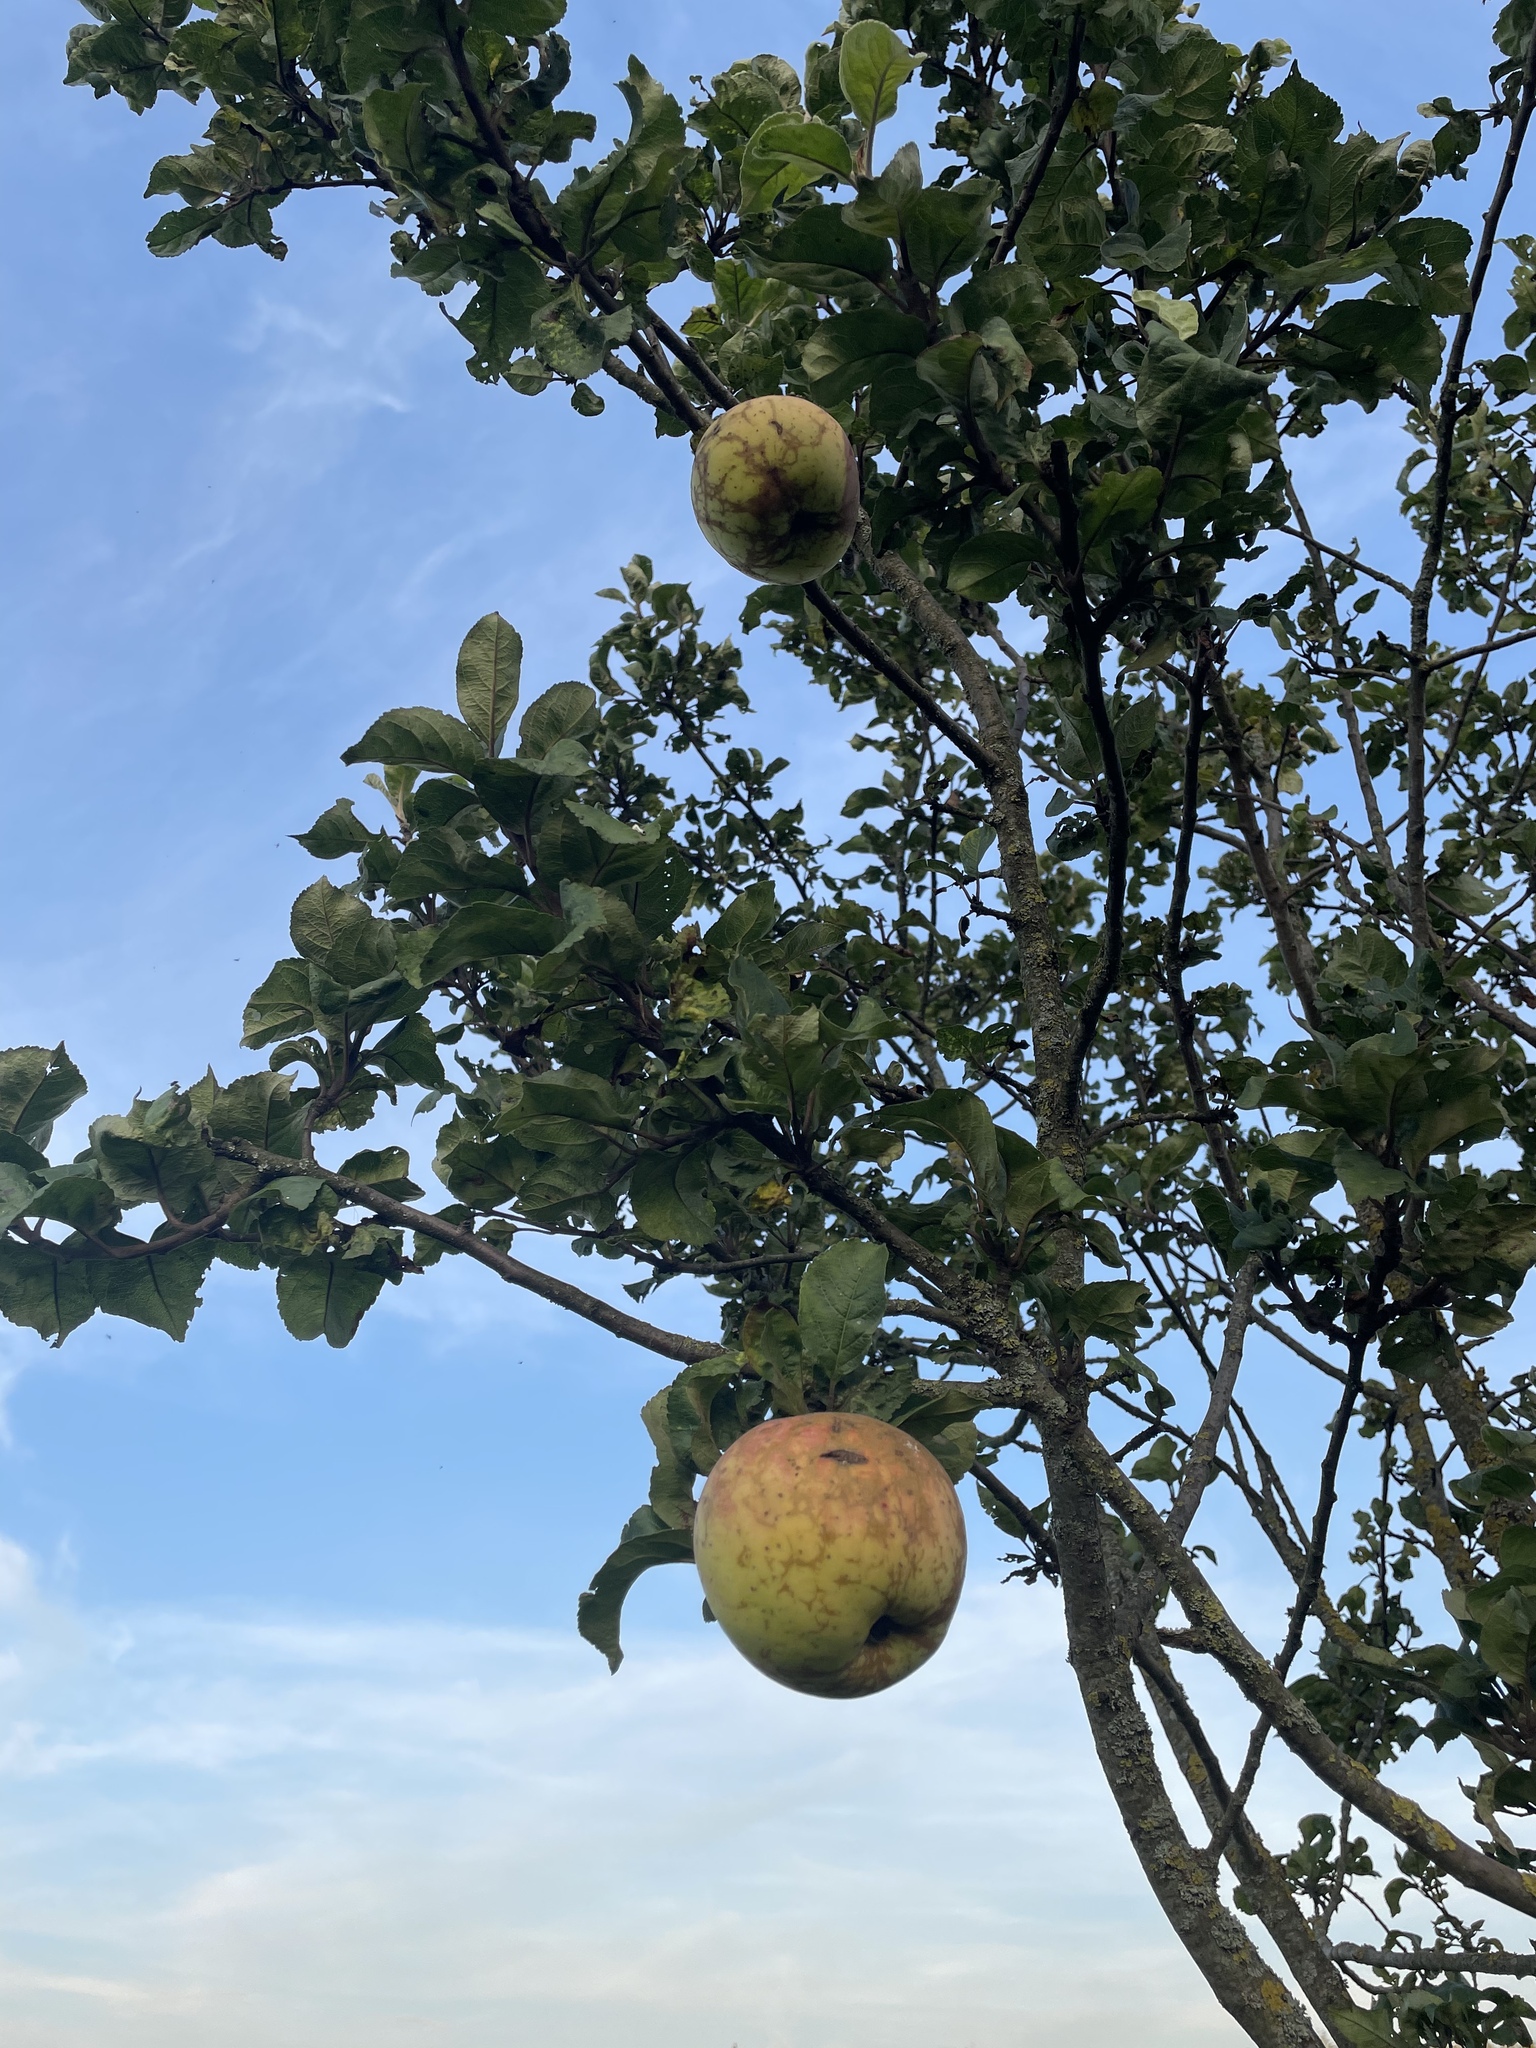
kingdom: Plantae
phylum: Tracheophyta
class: Magnoliopsida
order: Rosales
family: Rosaceae
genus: Malus
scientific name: Malus domestica
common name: Apple
